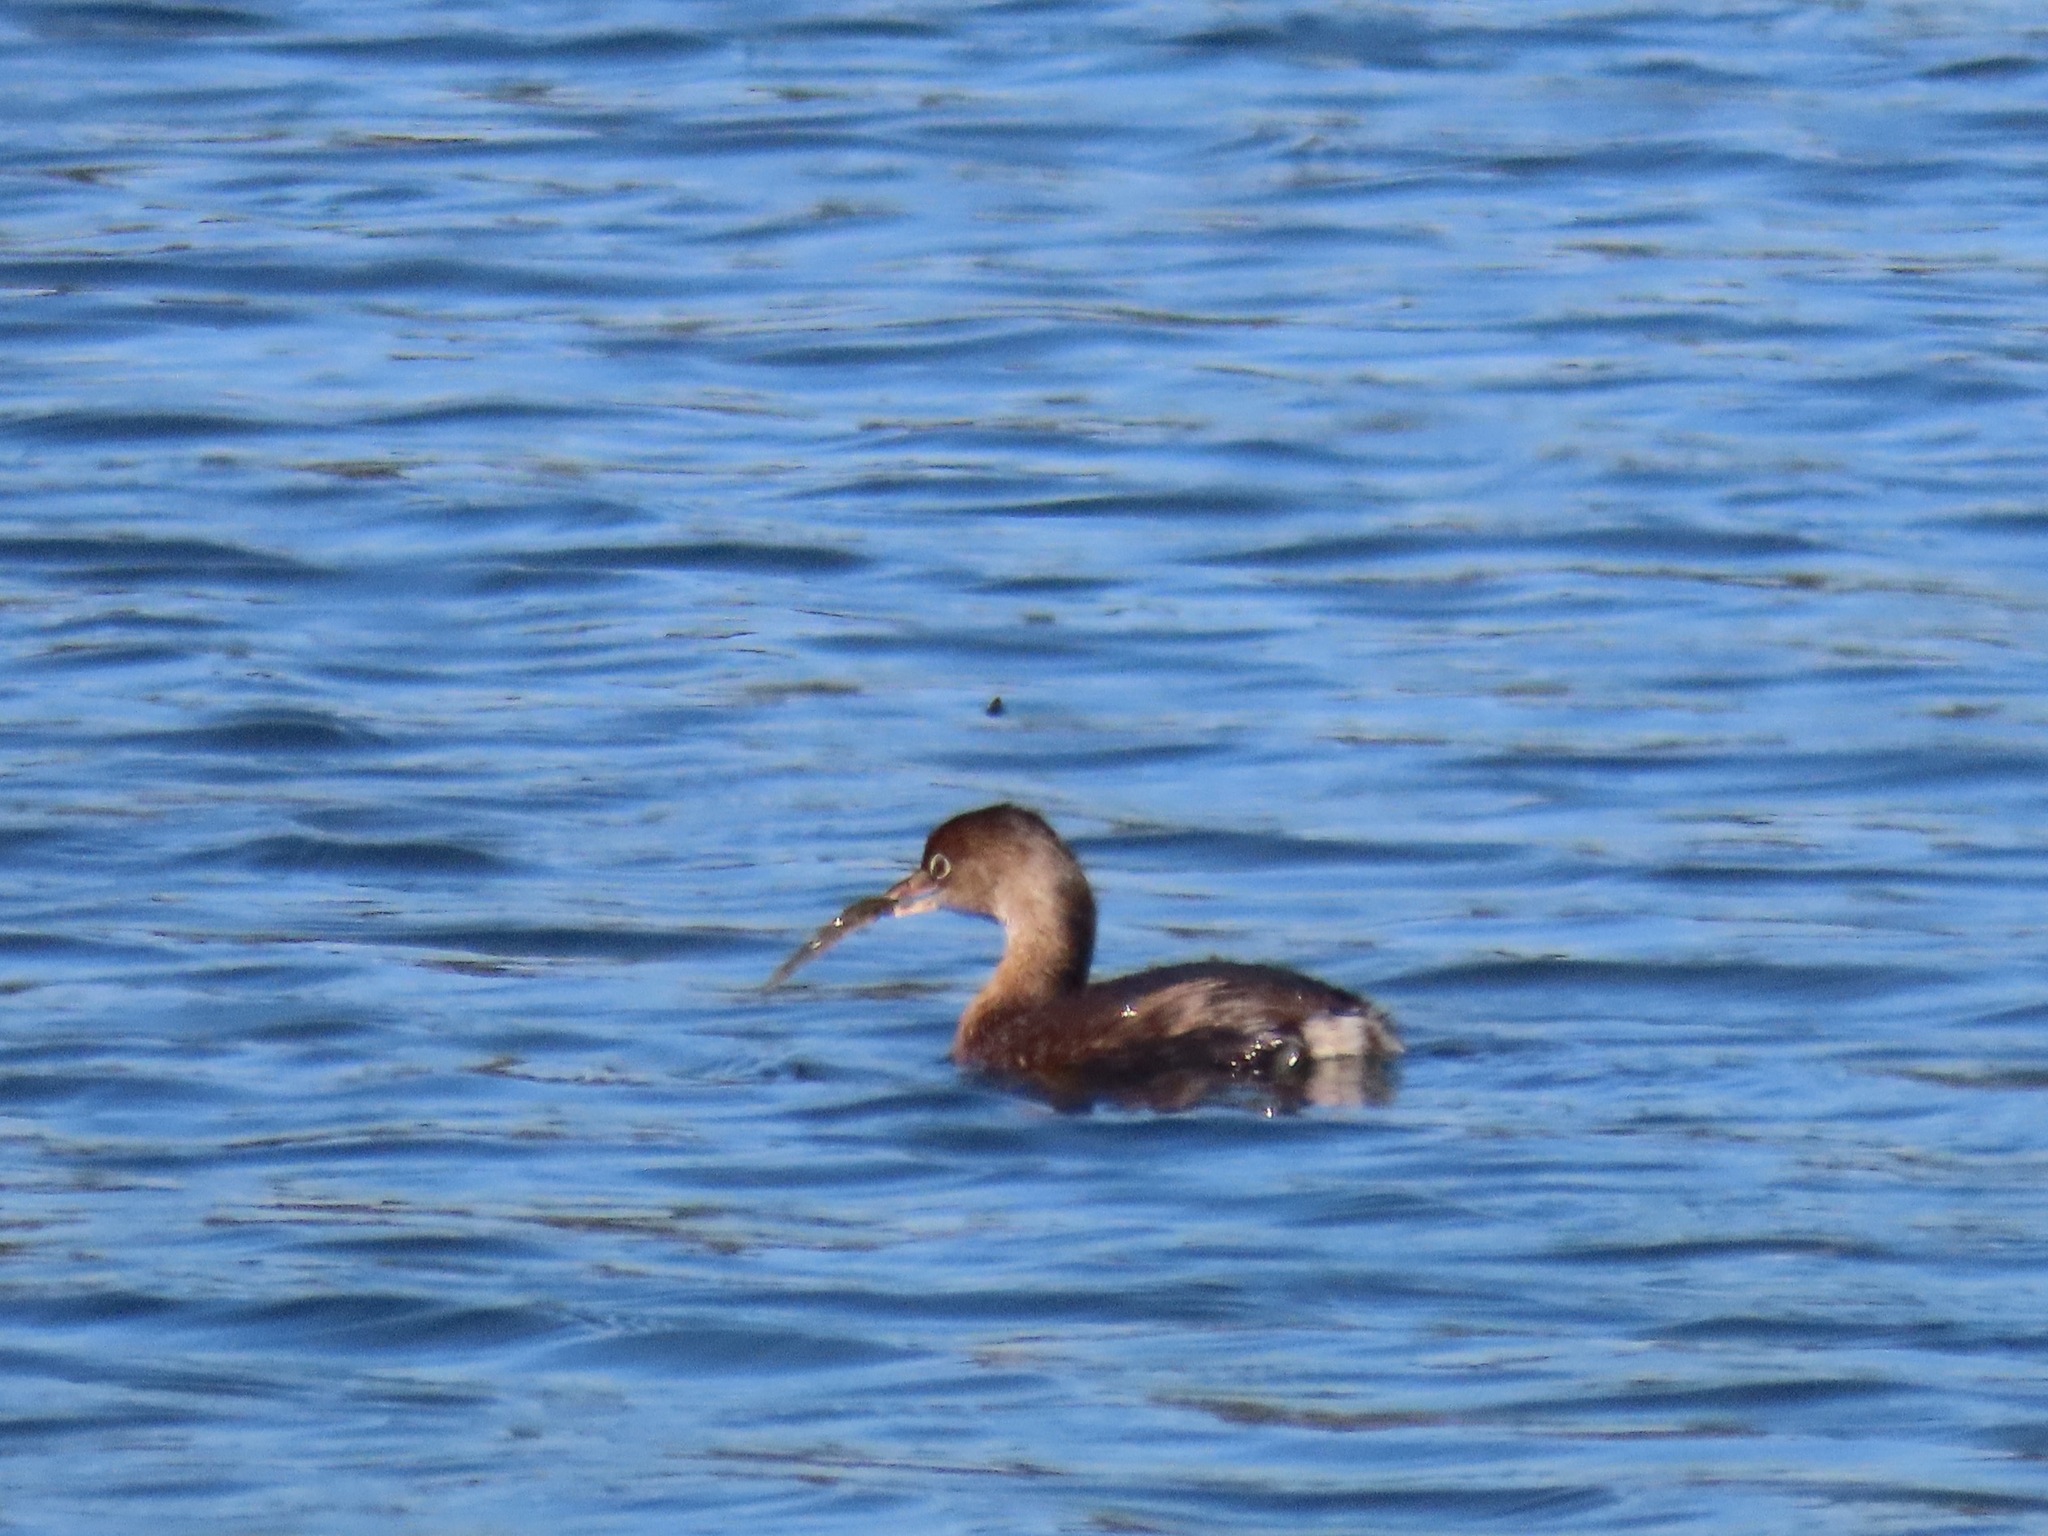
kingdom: Animalia
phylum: Chordata
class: Aves
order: Podicipediformes
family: Podicipedidae
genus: Podilymbus
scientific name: Podilymbus podiceps
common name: Pied-billed grebe
